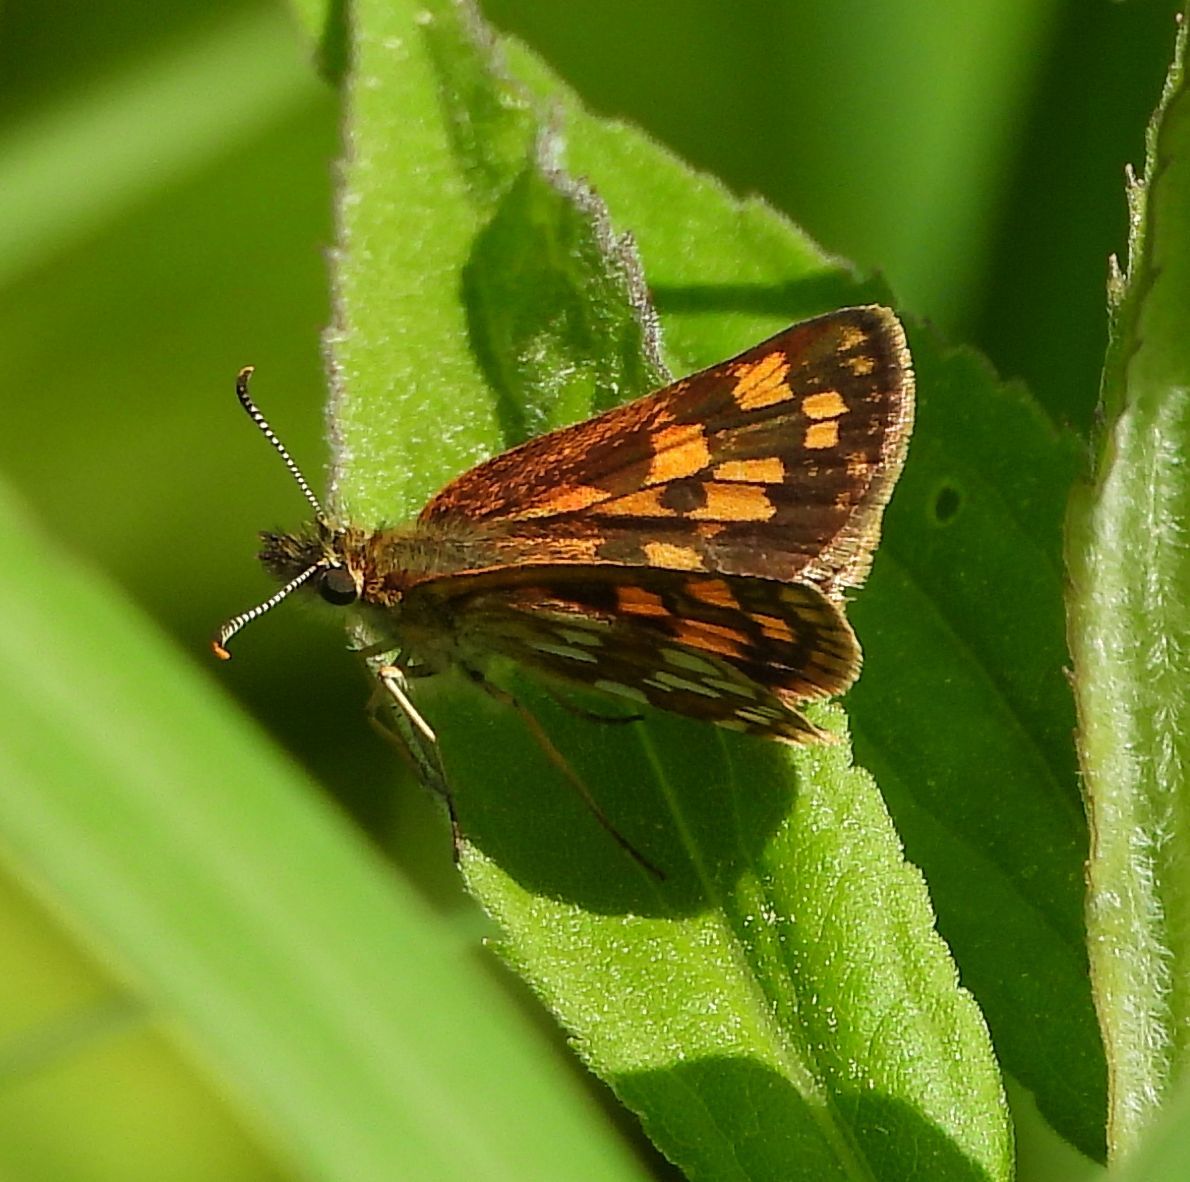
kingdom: Animalia
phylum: Arthropoda
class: Insecta
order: Lepidoptera
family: Hesperiidae
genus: Carterocephalus
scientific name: Carterocephalus mandan
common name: Arctic skipperling
